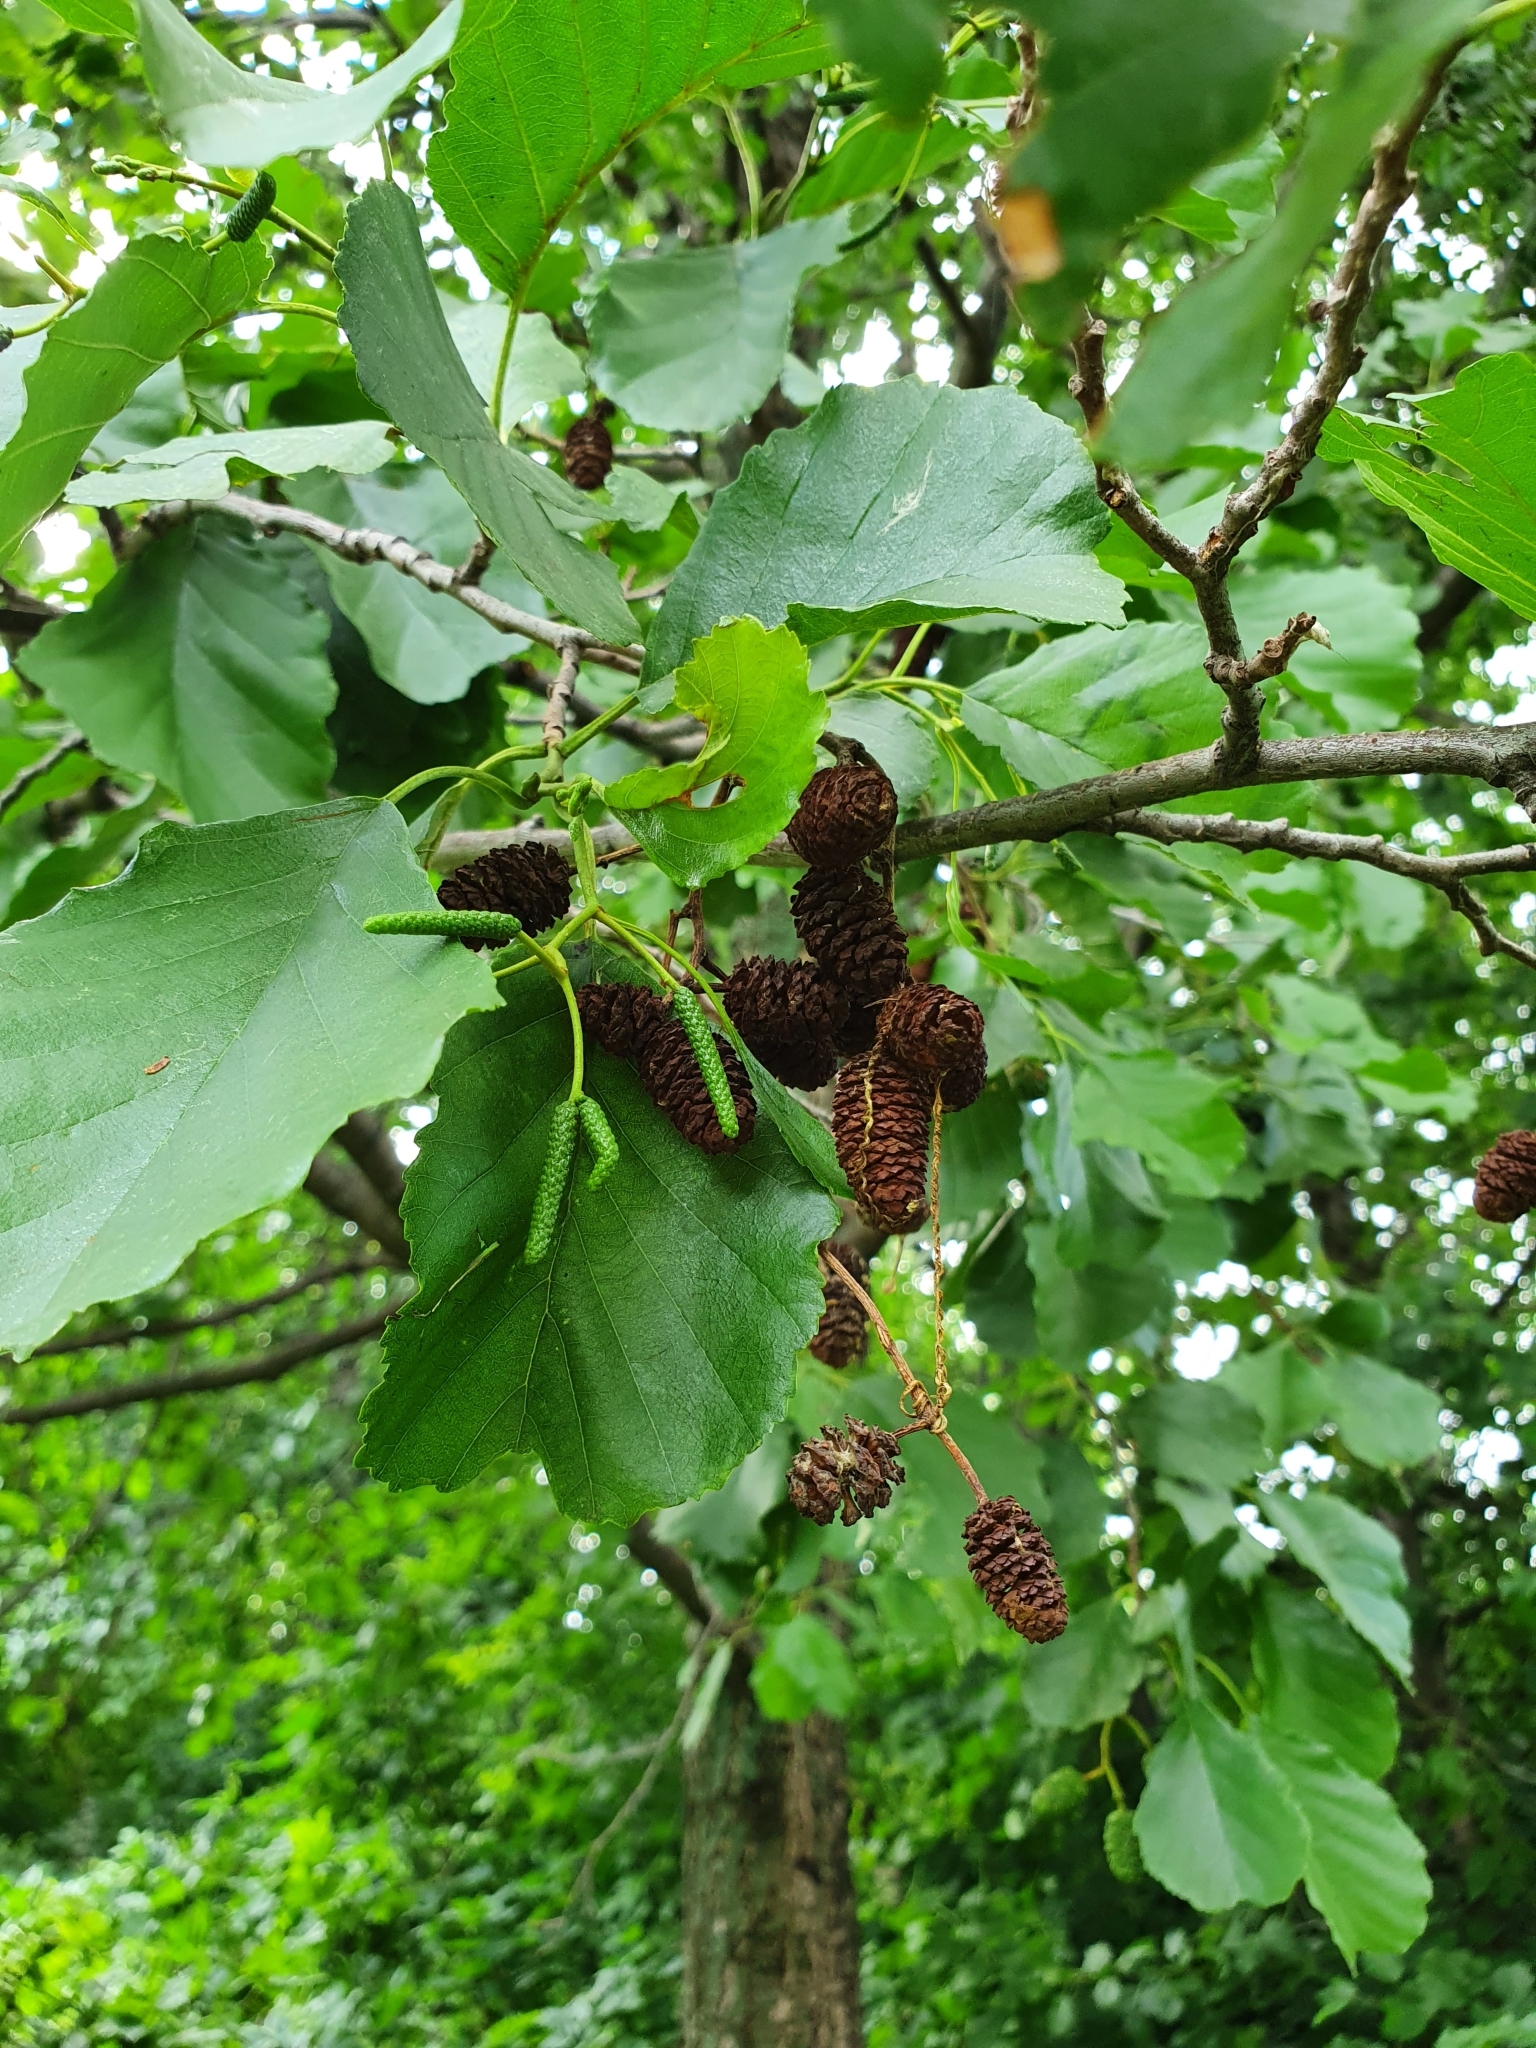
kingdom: Plantae
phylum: Tracheophyta
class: Magnoliopsida
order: Fagales
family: Betulaceae
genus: Alnus
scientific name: Alnus glutinosa
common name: Black alder
